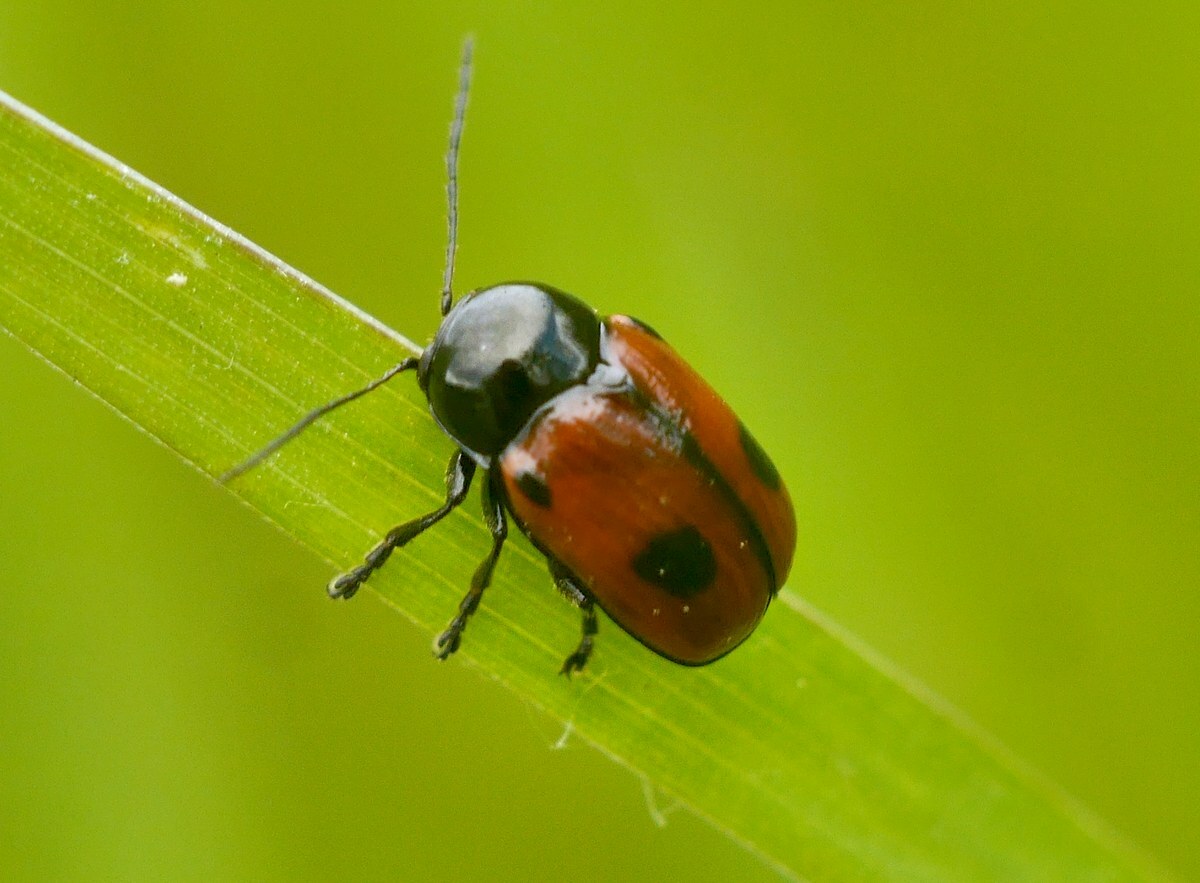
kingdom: Animalia
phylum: Arthropoda
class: Insecta
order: Coleoptera
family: Chrysomelidae
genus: Chiridopsis
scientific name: Chiridopsis bipunctata
